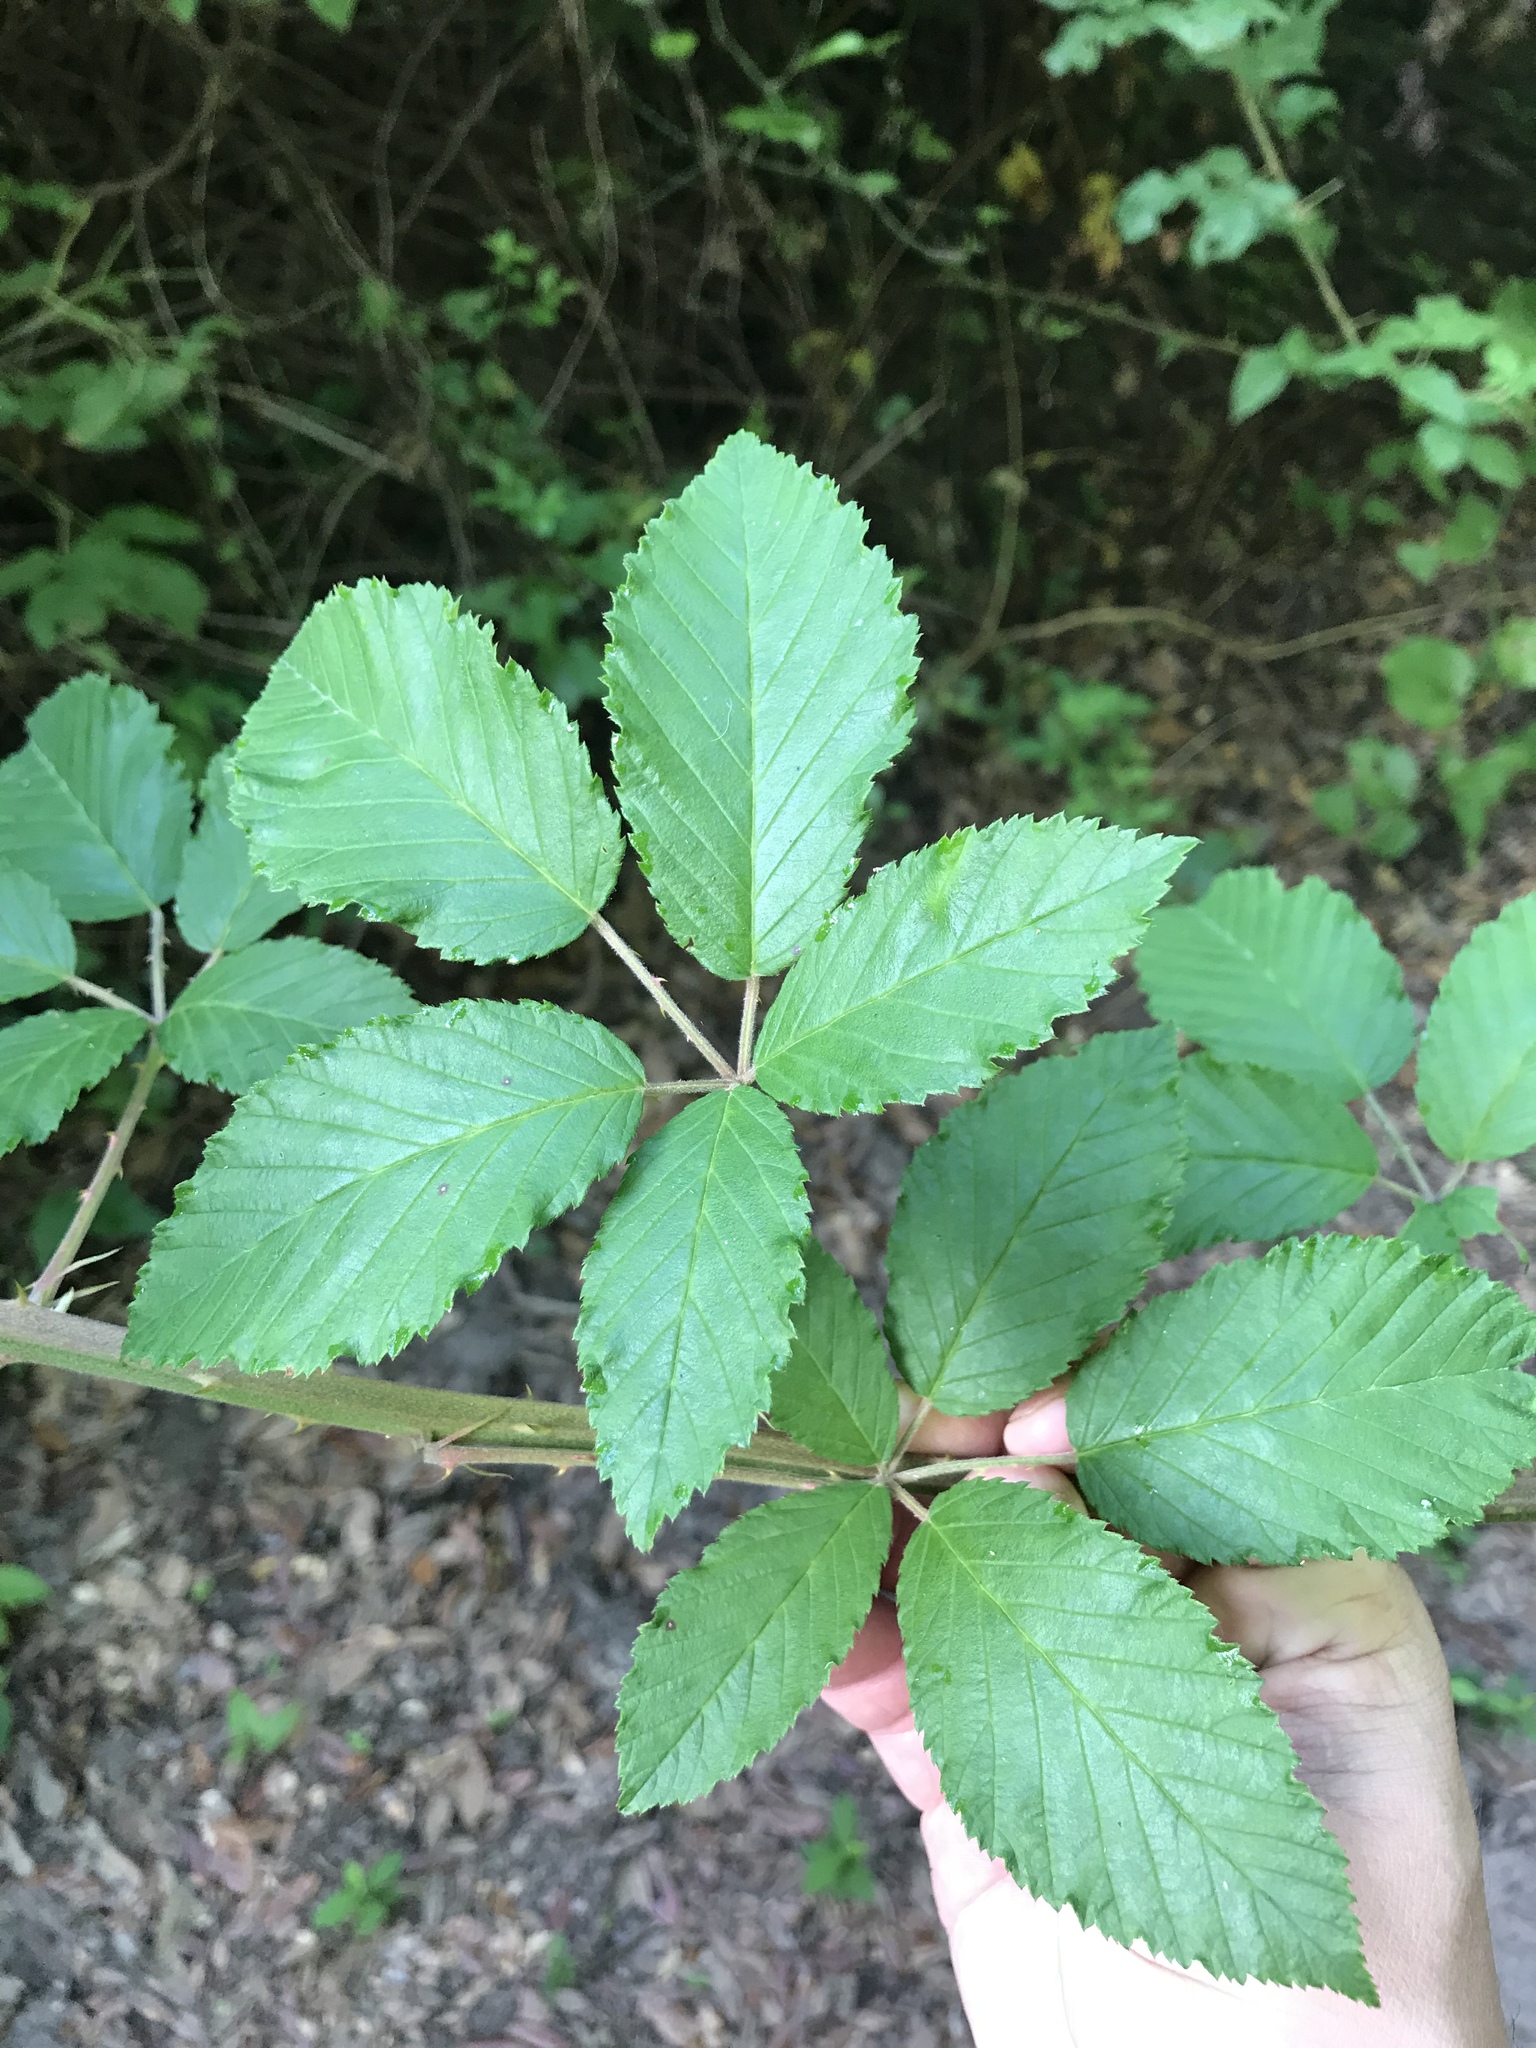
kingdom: Plantae
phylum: Tracheophyta
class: Magnoliopsida
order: Rosales
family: Rosaceae
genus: Rubus
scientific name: Rubus pensilvanicus
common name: Pennsylvania blackberry
